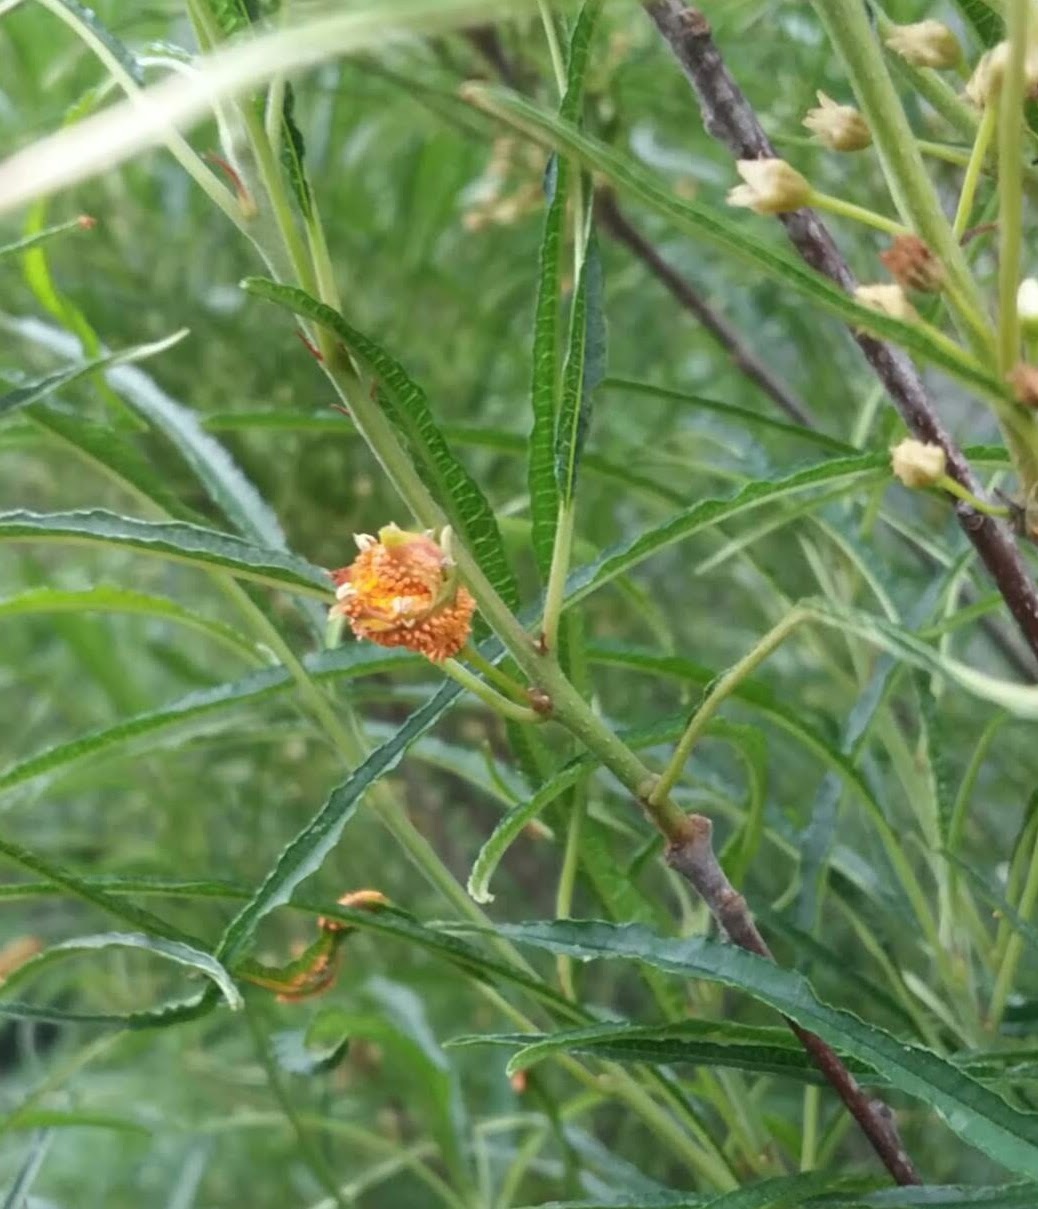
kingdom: Fungi
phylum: Basidiomycota
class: Pucciniomycetes
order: Pucciniales
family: Pucciniaceae
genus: Puccinia
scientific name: Puccinia coronata
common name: Crown rust
